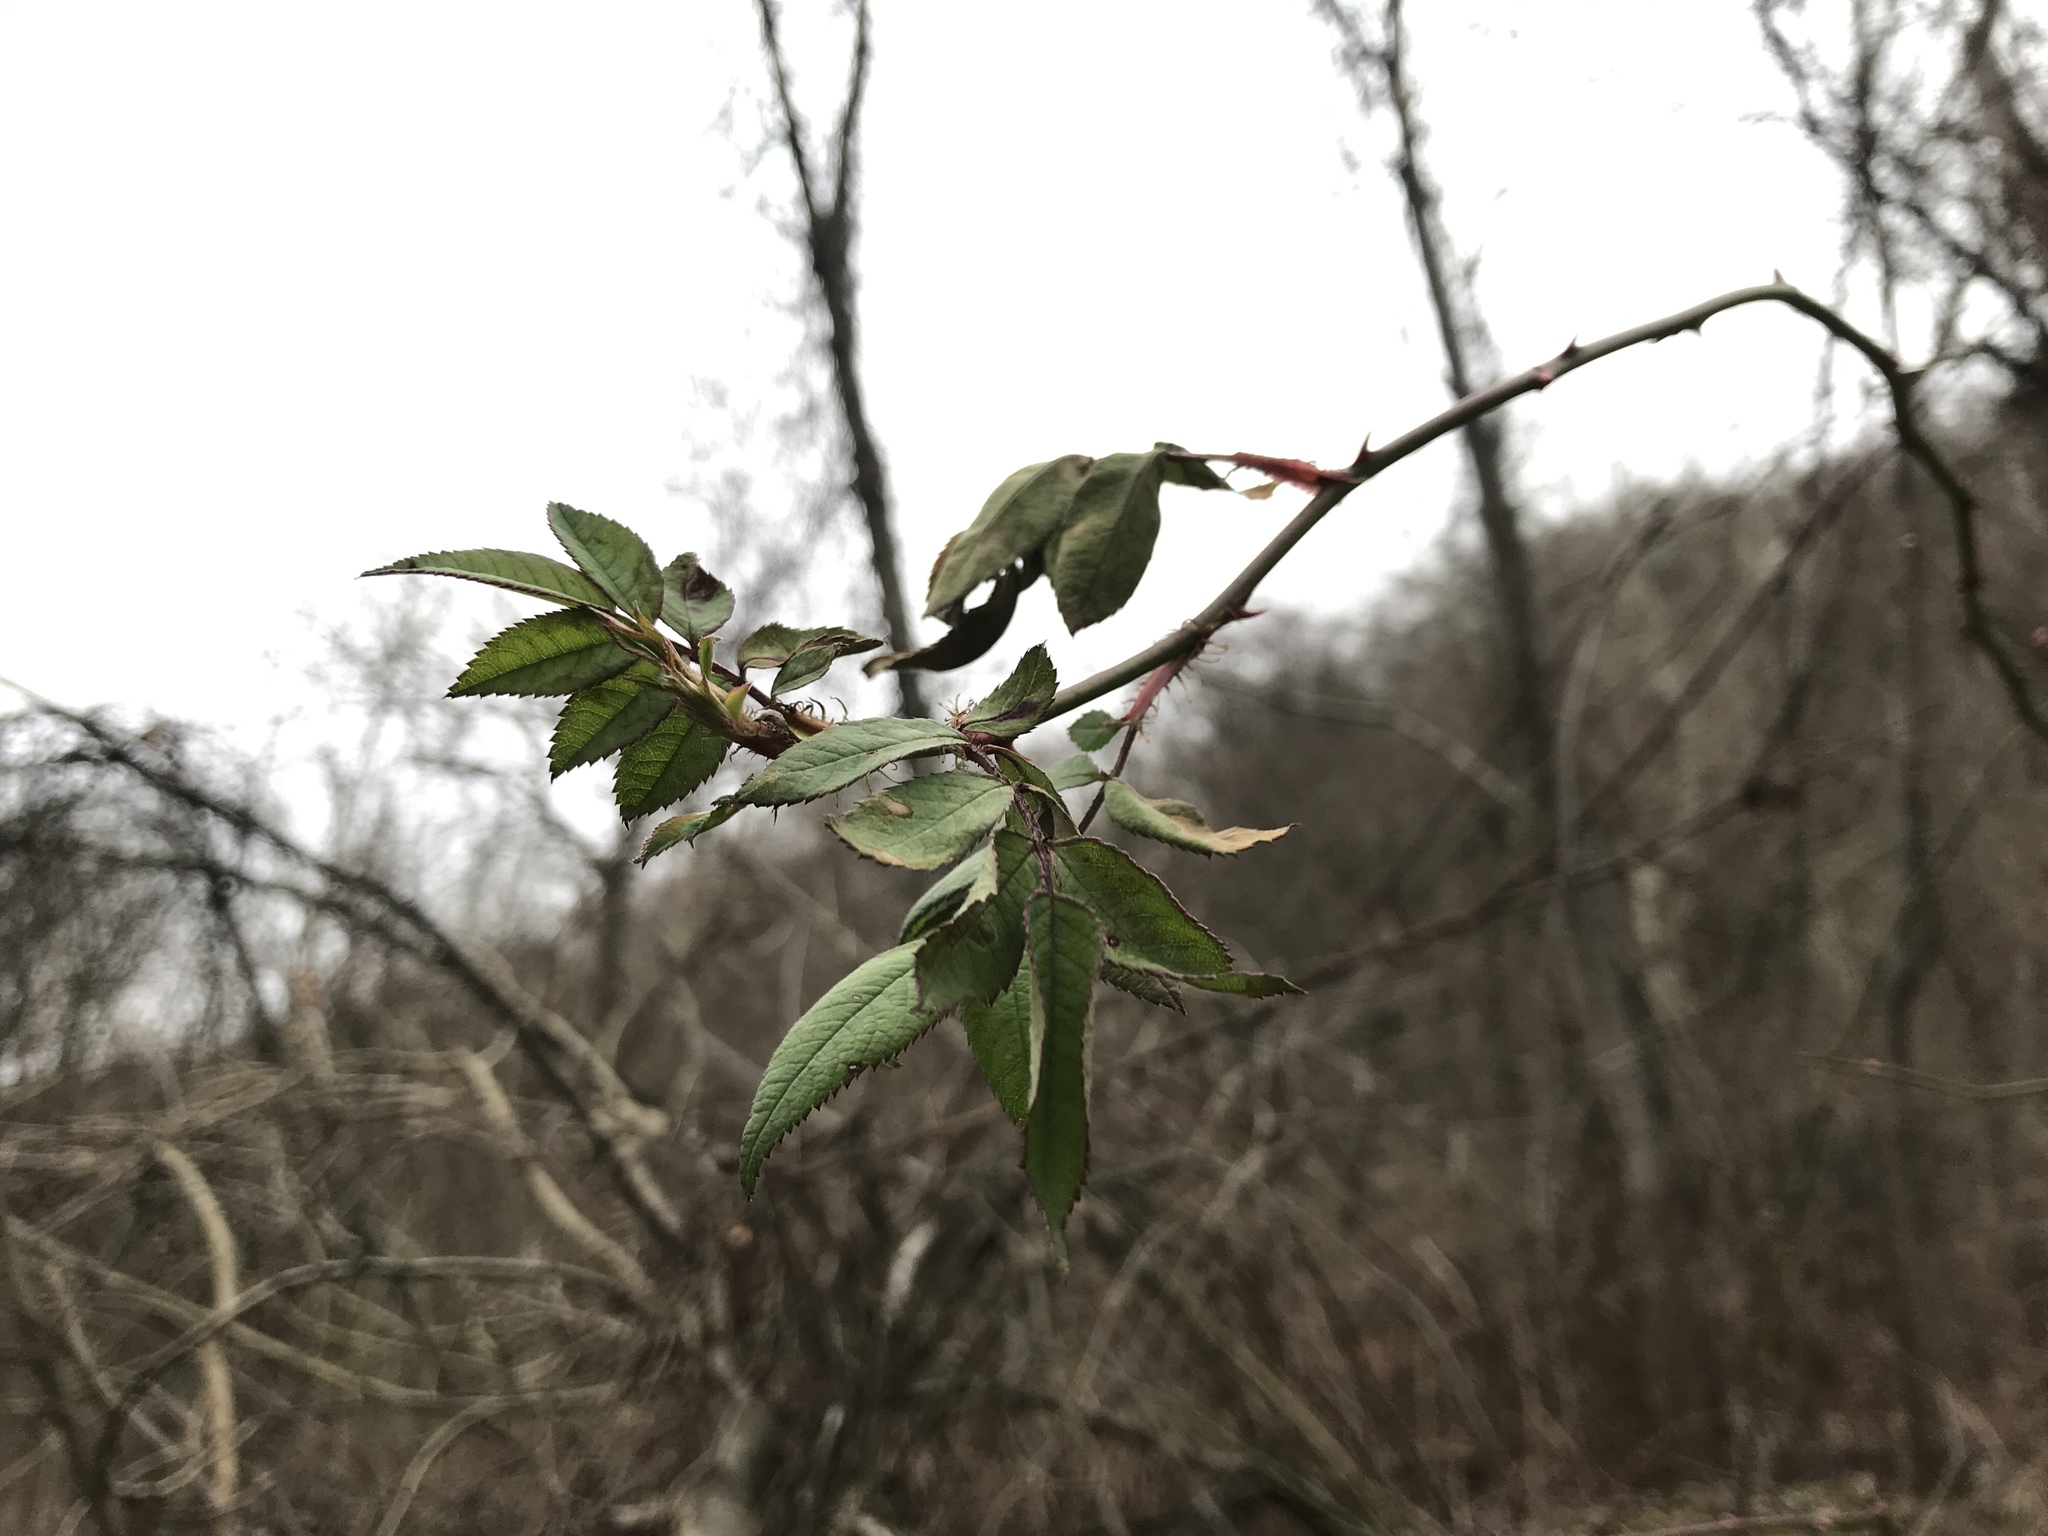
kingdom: Plantae
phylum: Tracheophyta
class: Magnoliopsida
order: Rosales
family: Rosaceae
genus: Rosa
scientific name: Rosa multiflora
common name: Multiflora rose
